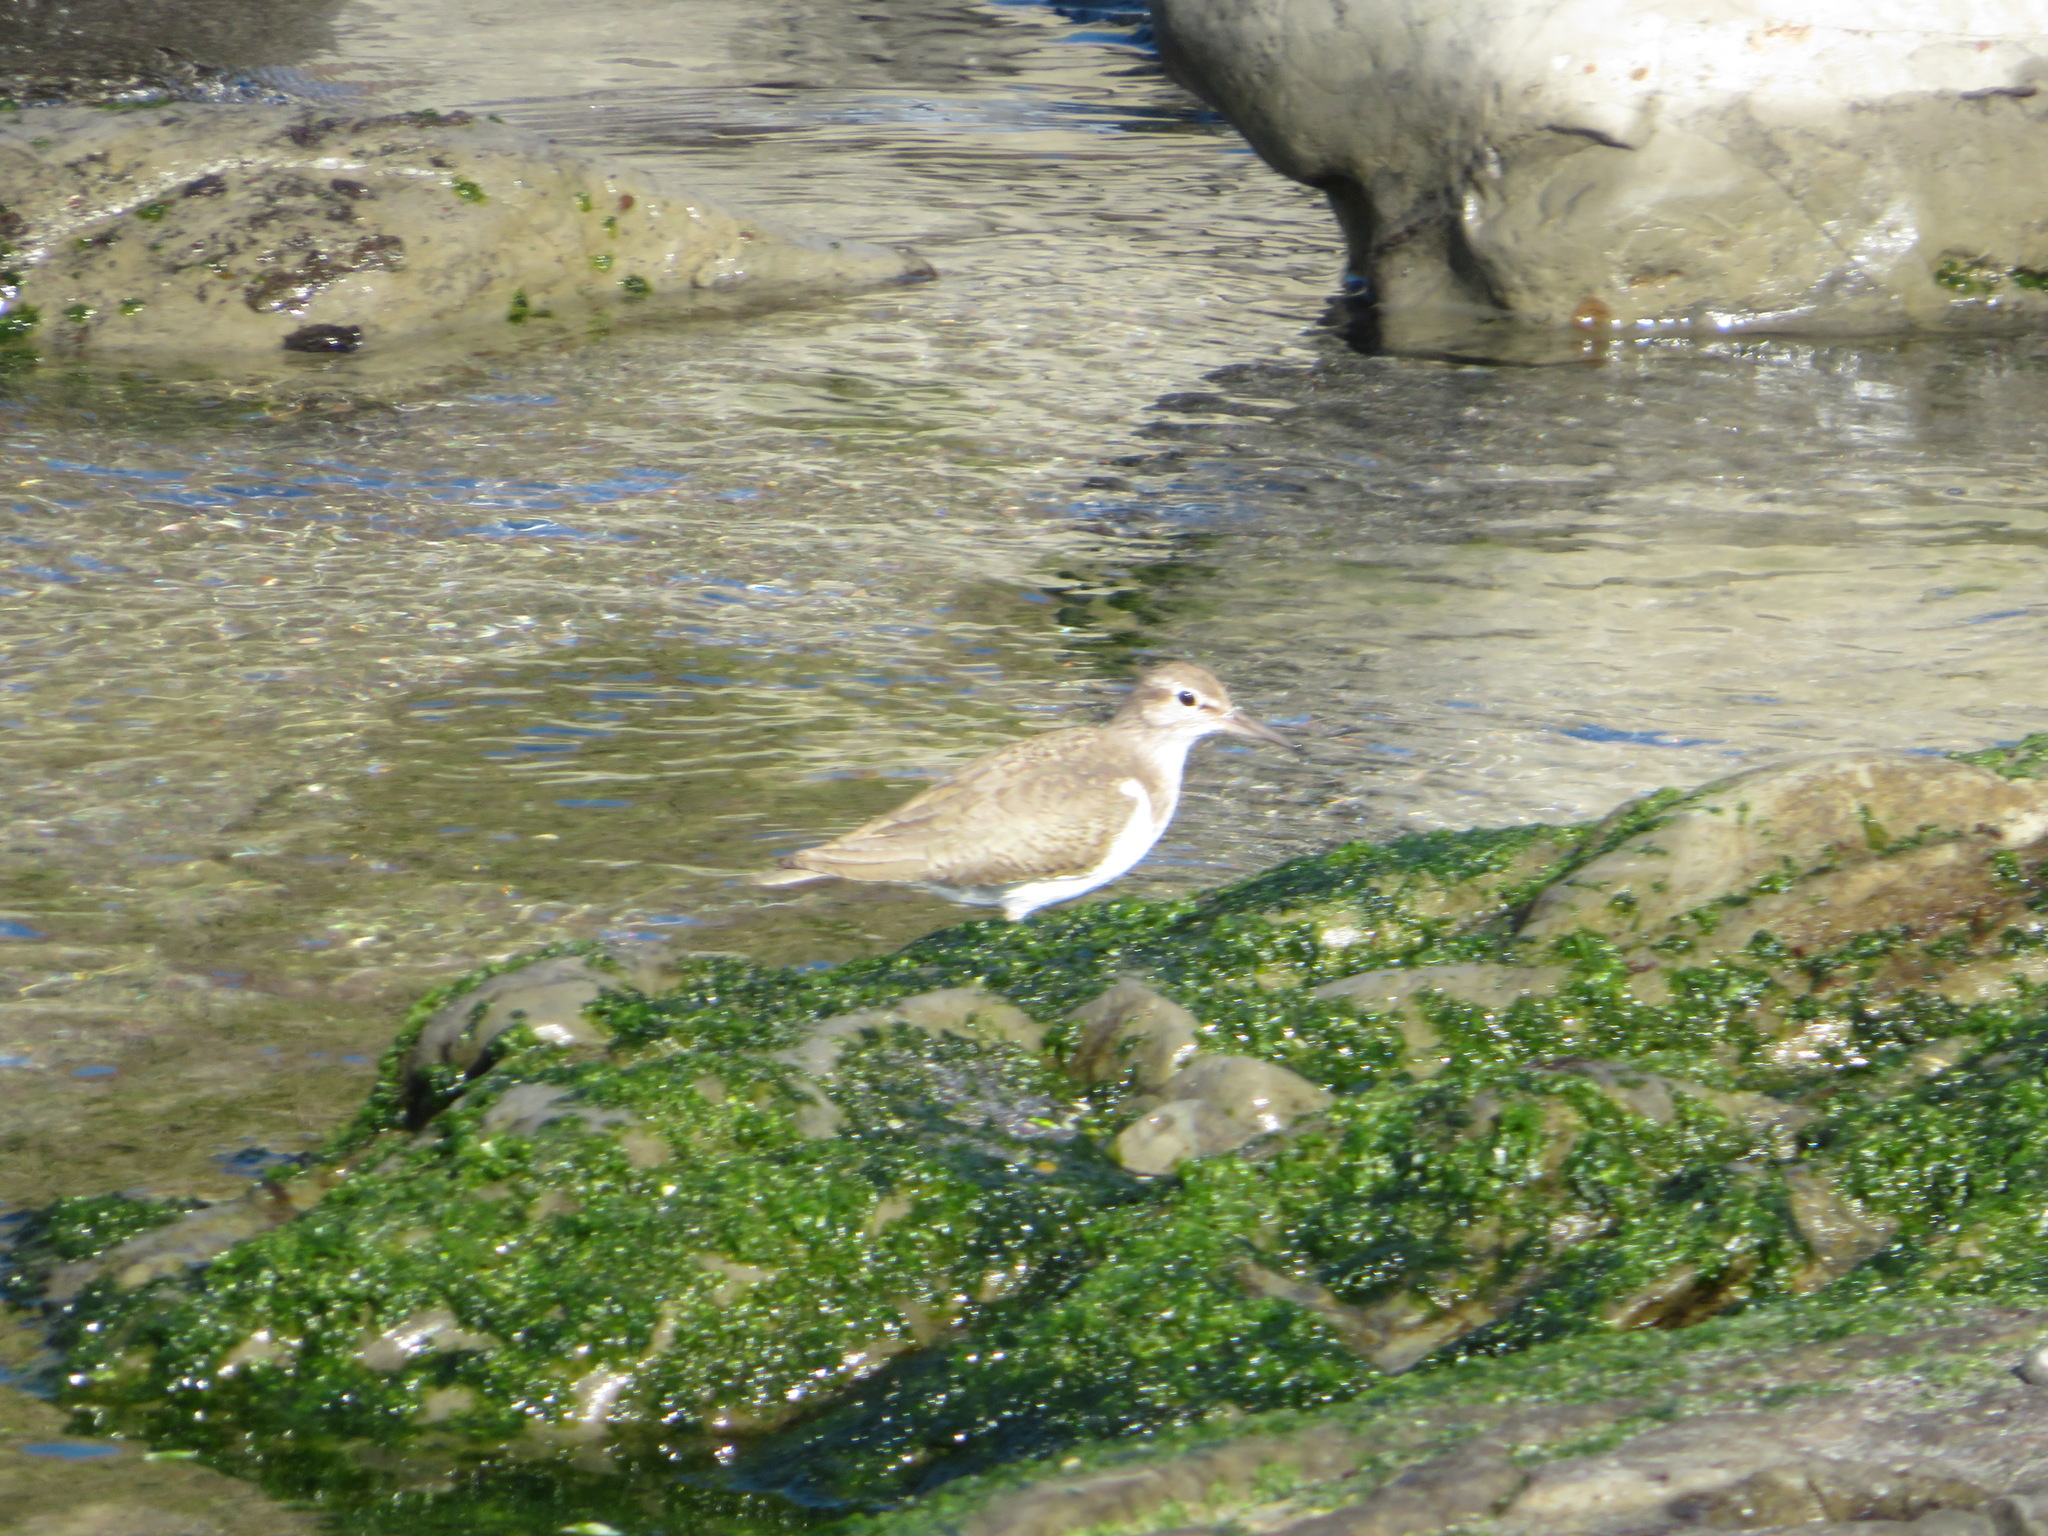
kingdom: Animalia
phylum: Chordata
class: Aves
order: Charadriiformes
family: Scolopacidae
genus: Actitis
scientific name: Actitis hypoleucos
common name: Common sandpiper
